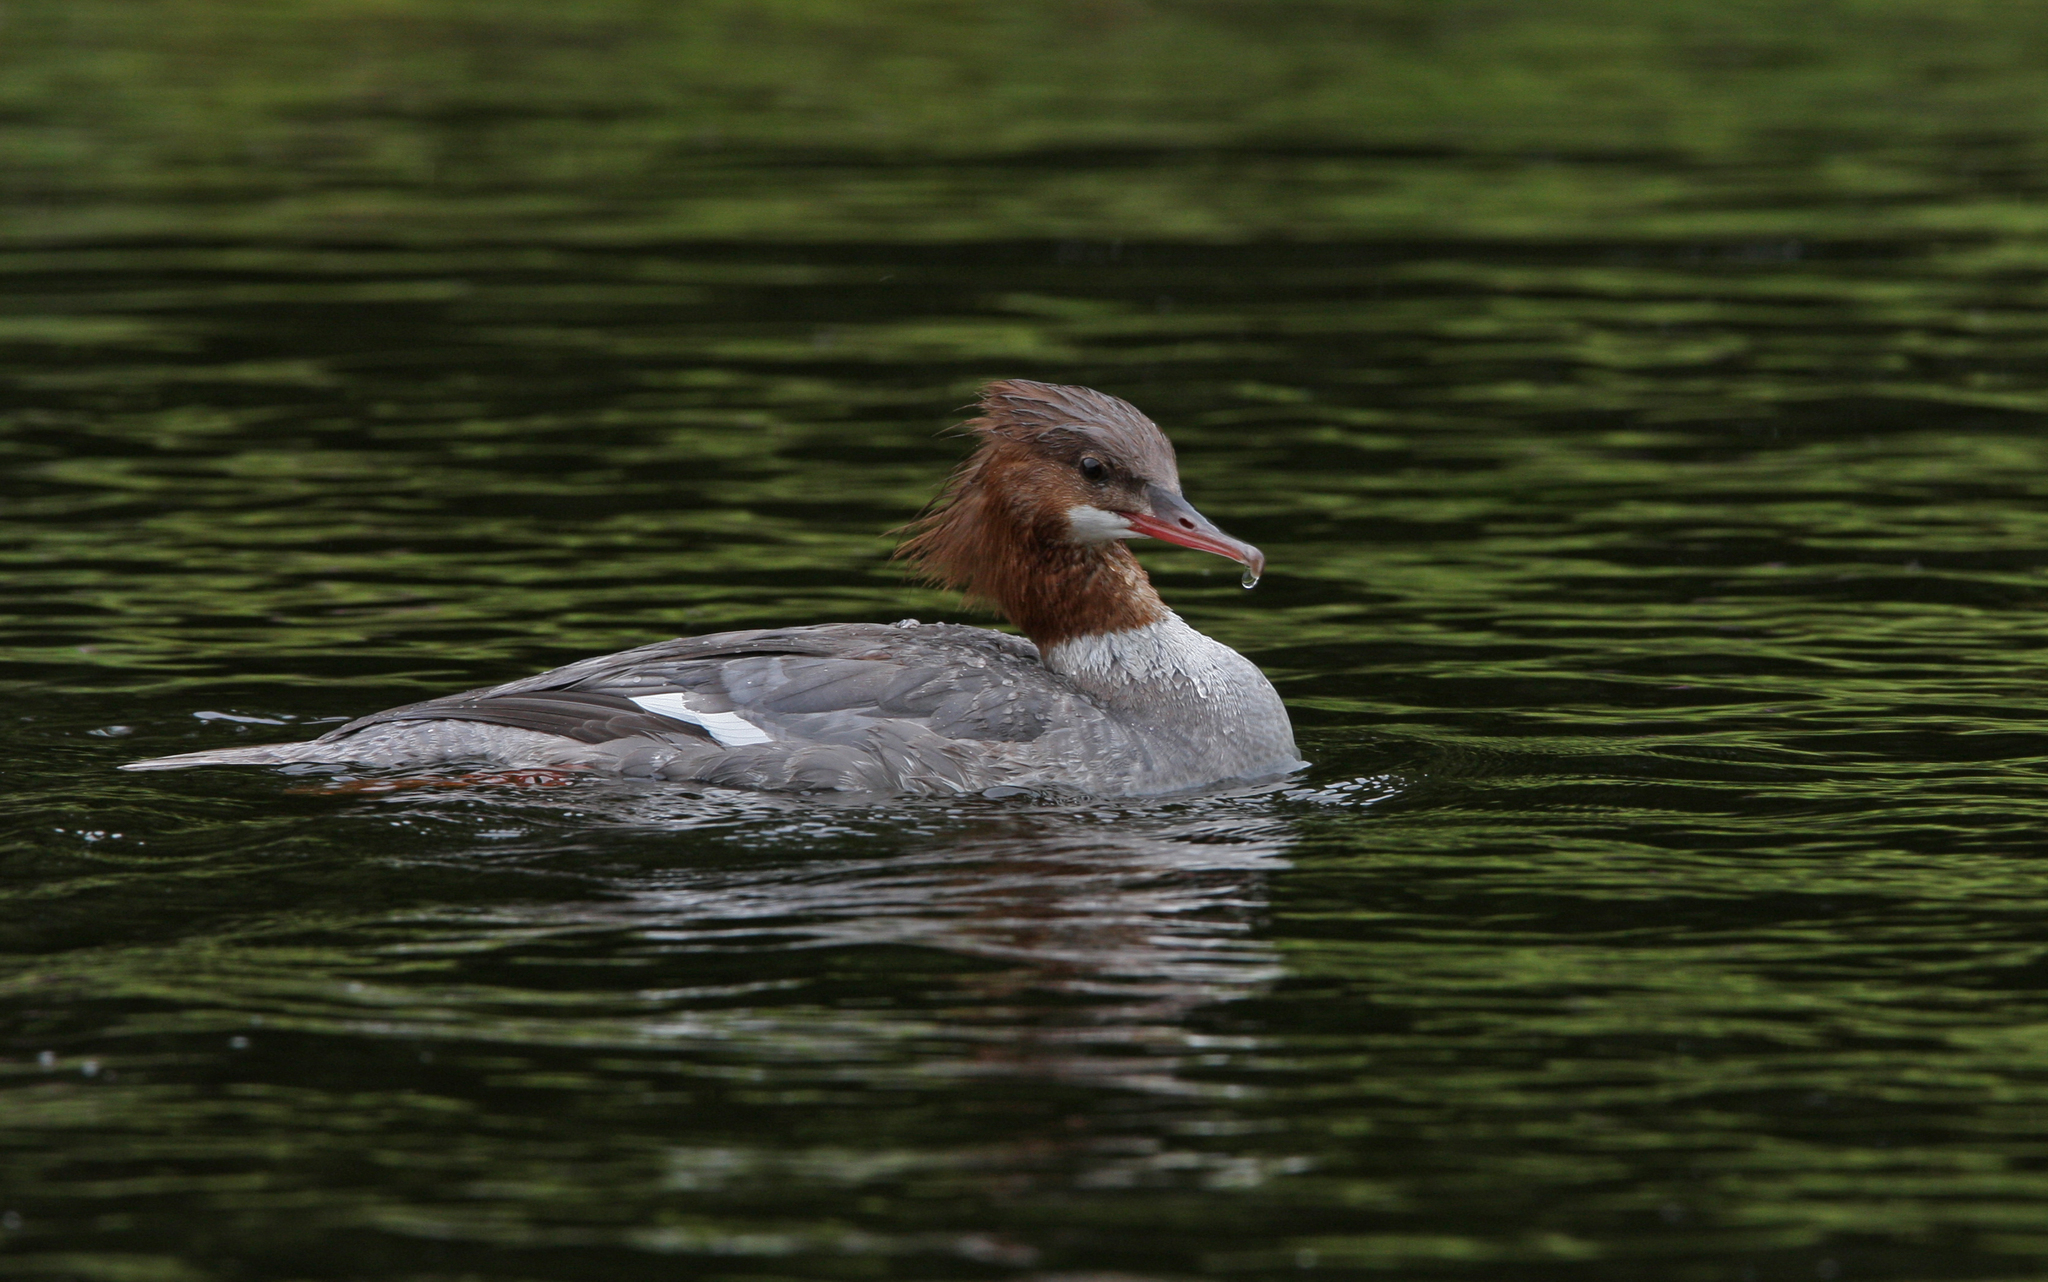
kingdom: Animalia
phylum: Chordata
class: Aves
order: Anseriformes
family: Anatidae
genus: Mergus
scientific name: Mergus merganser
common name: Common merganser
